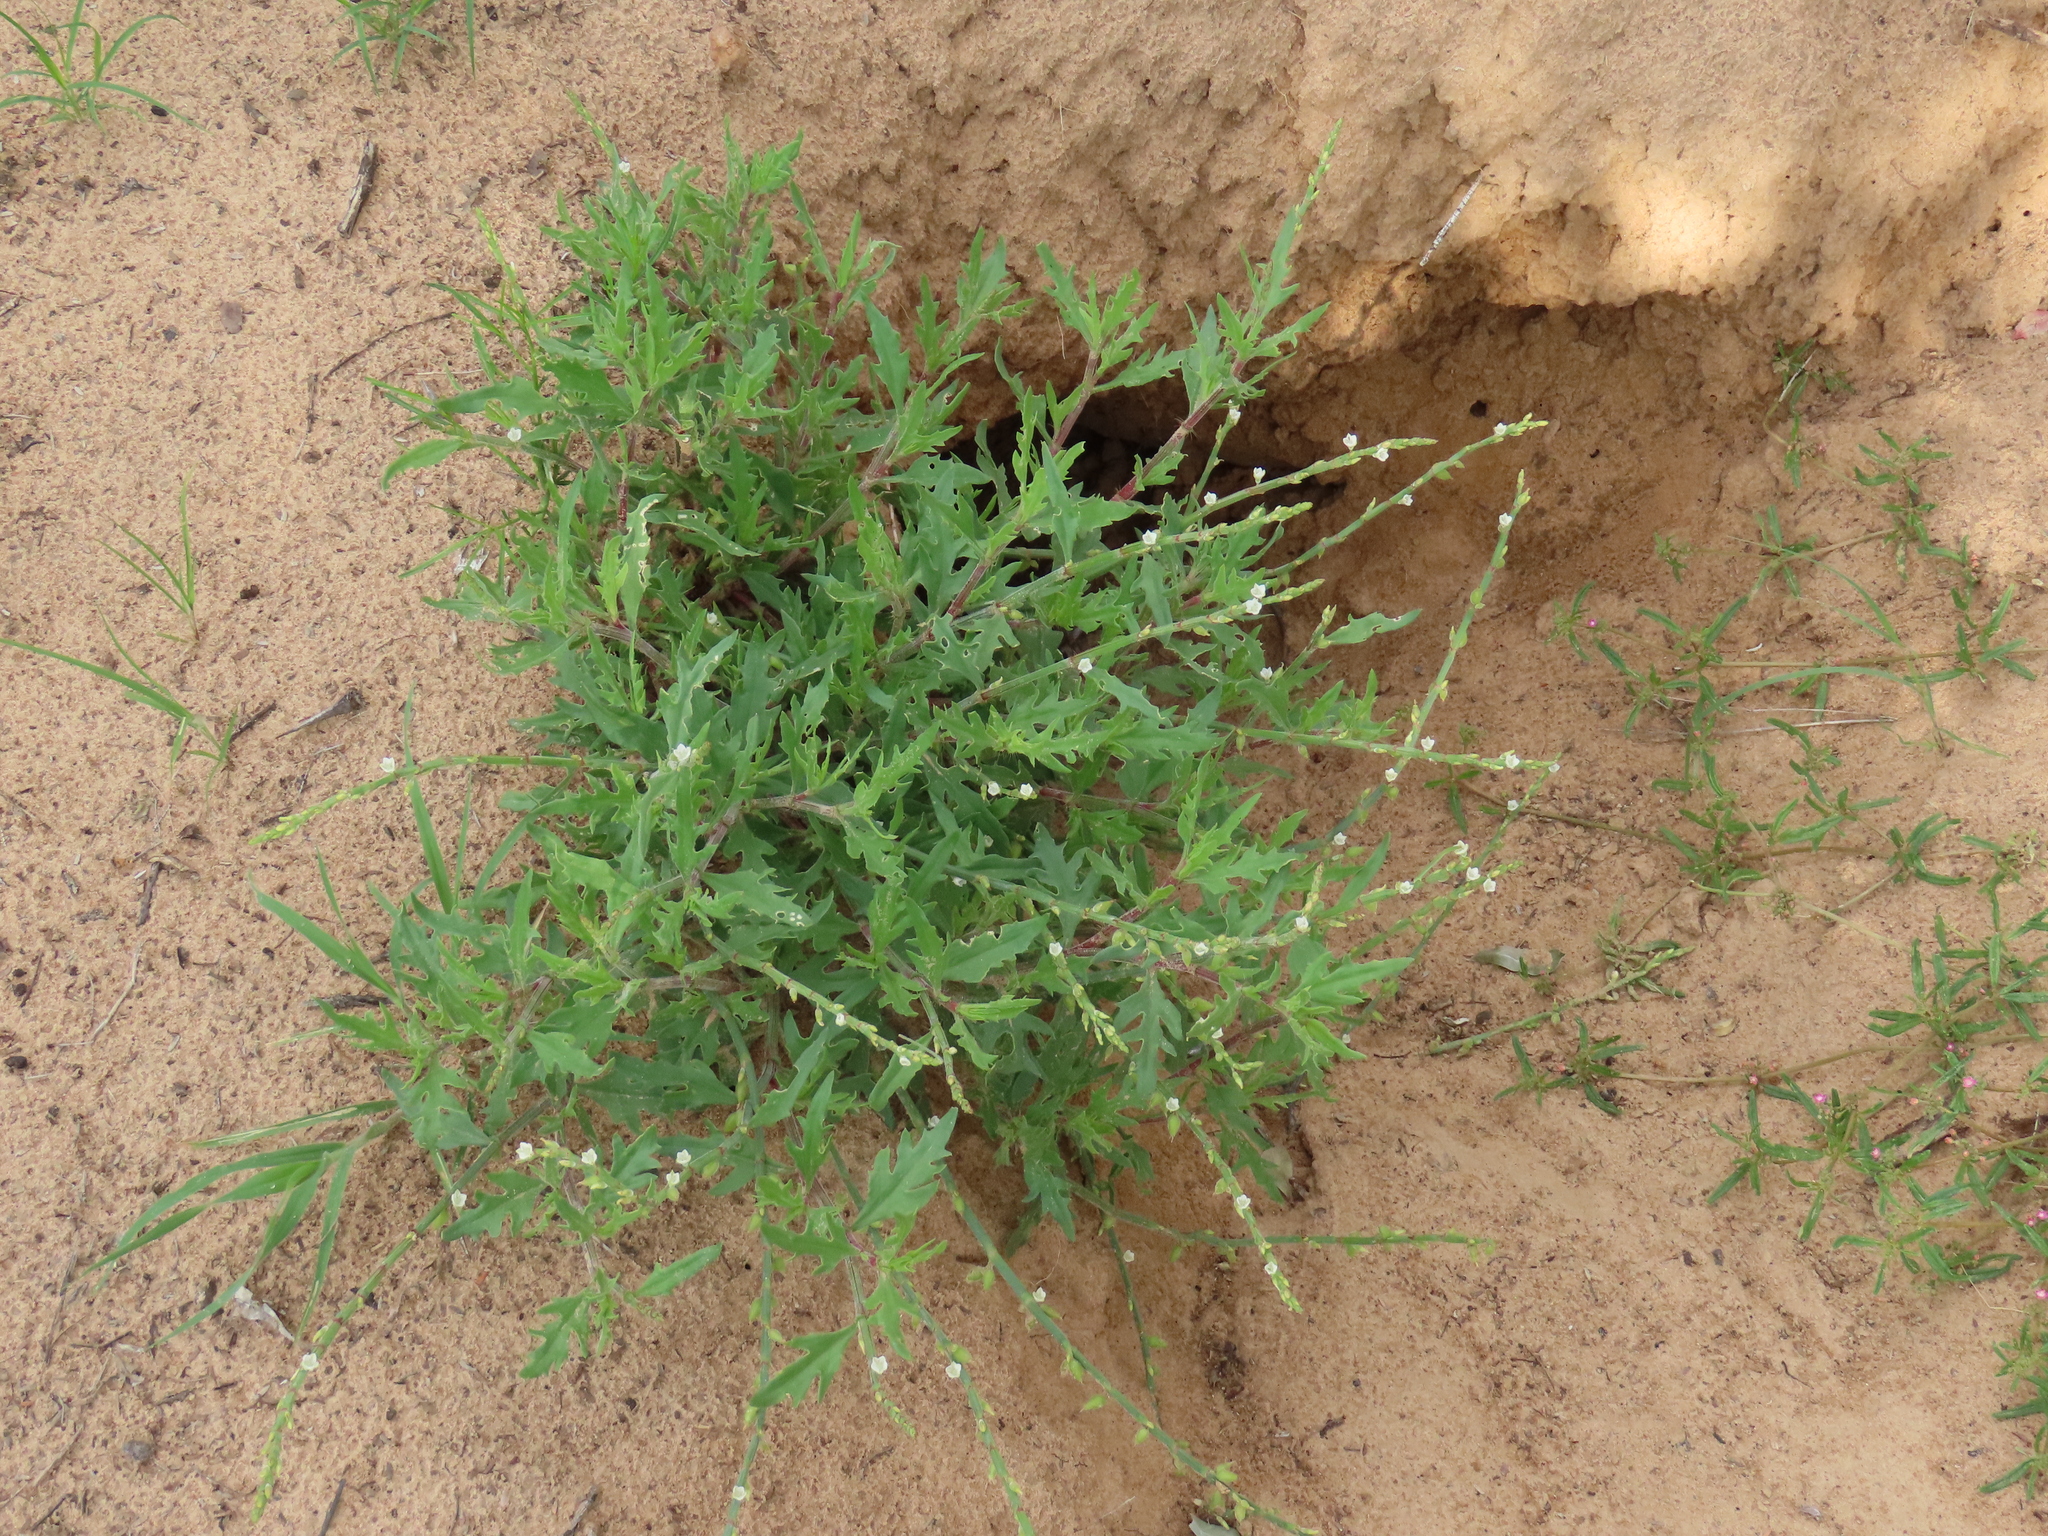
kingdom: Plantae
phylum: Tracheophyta
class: Magnoliopsida
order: Caryophyllales
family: Polygonaceae
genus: Oxygonum
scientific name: Oxygonum alatum
